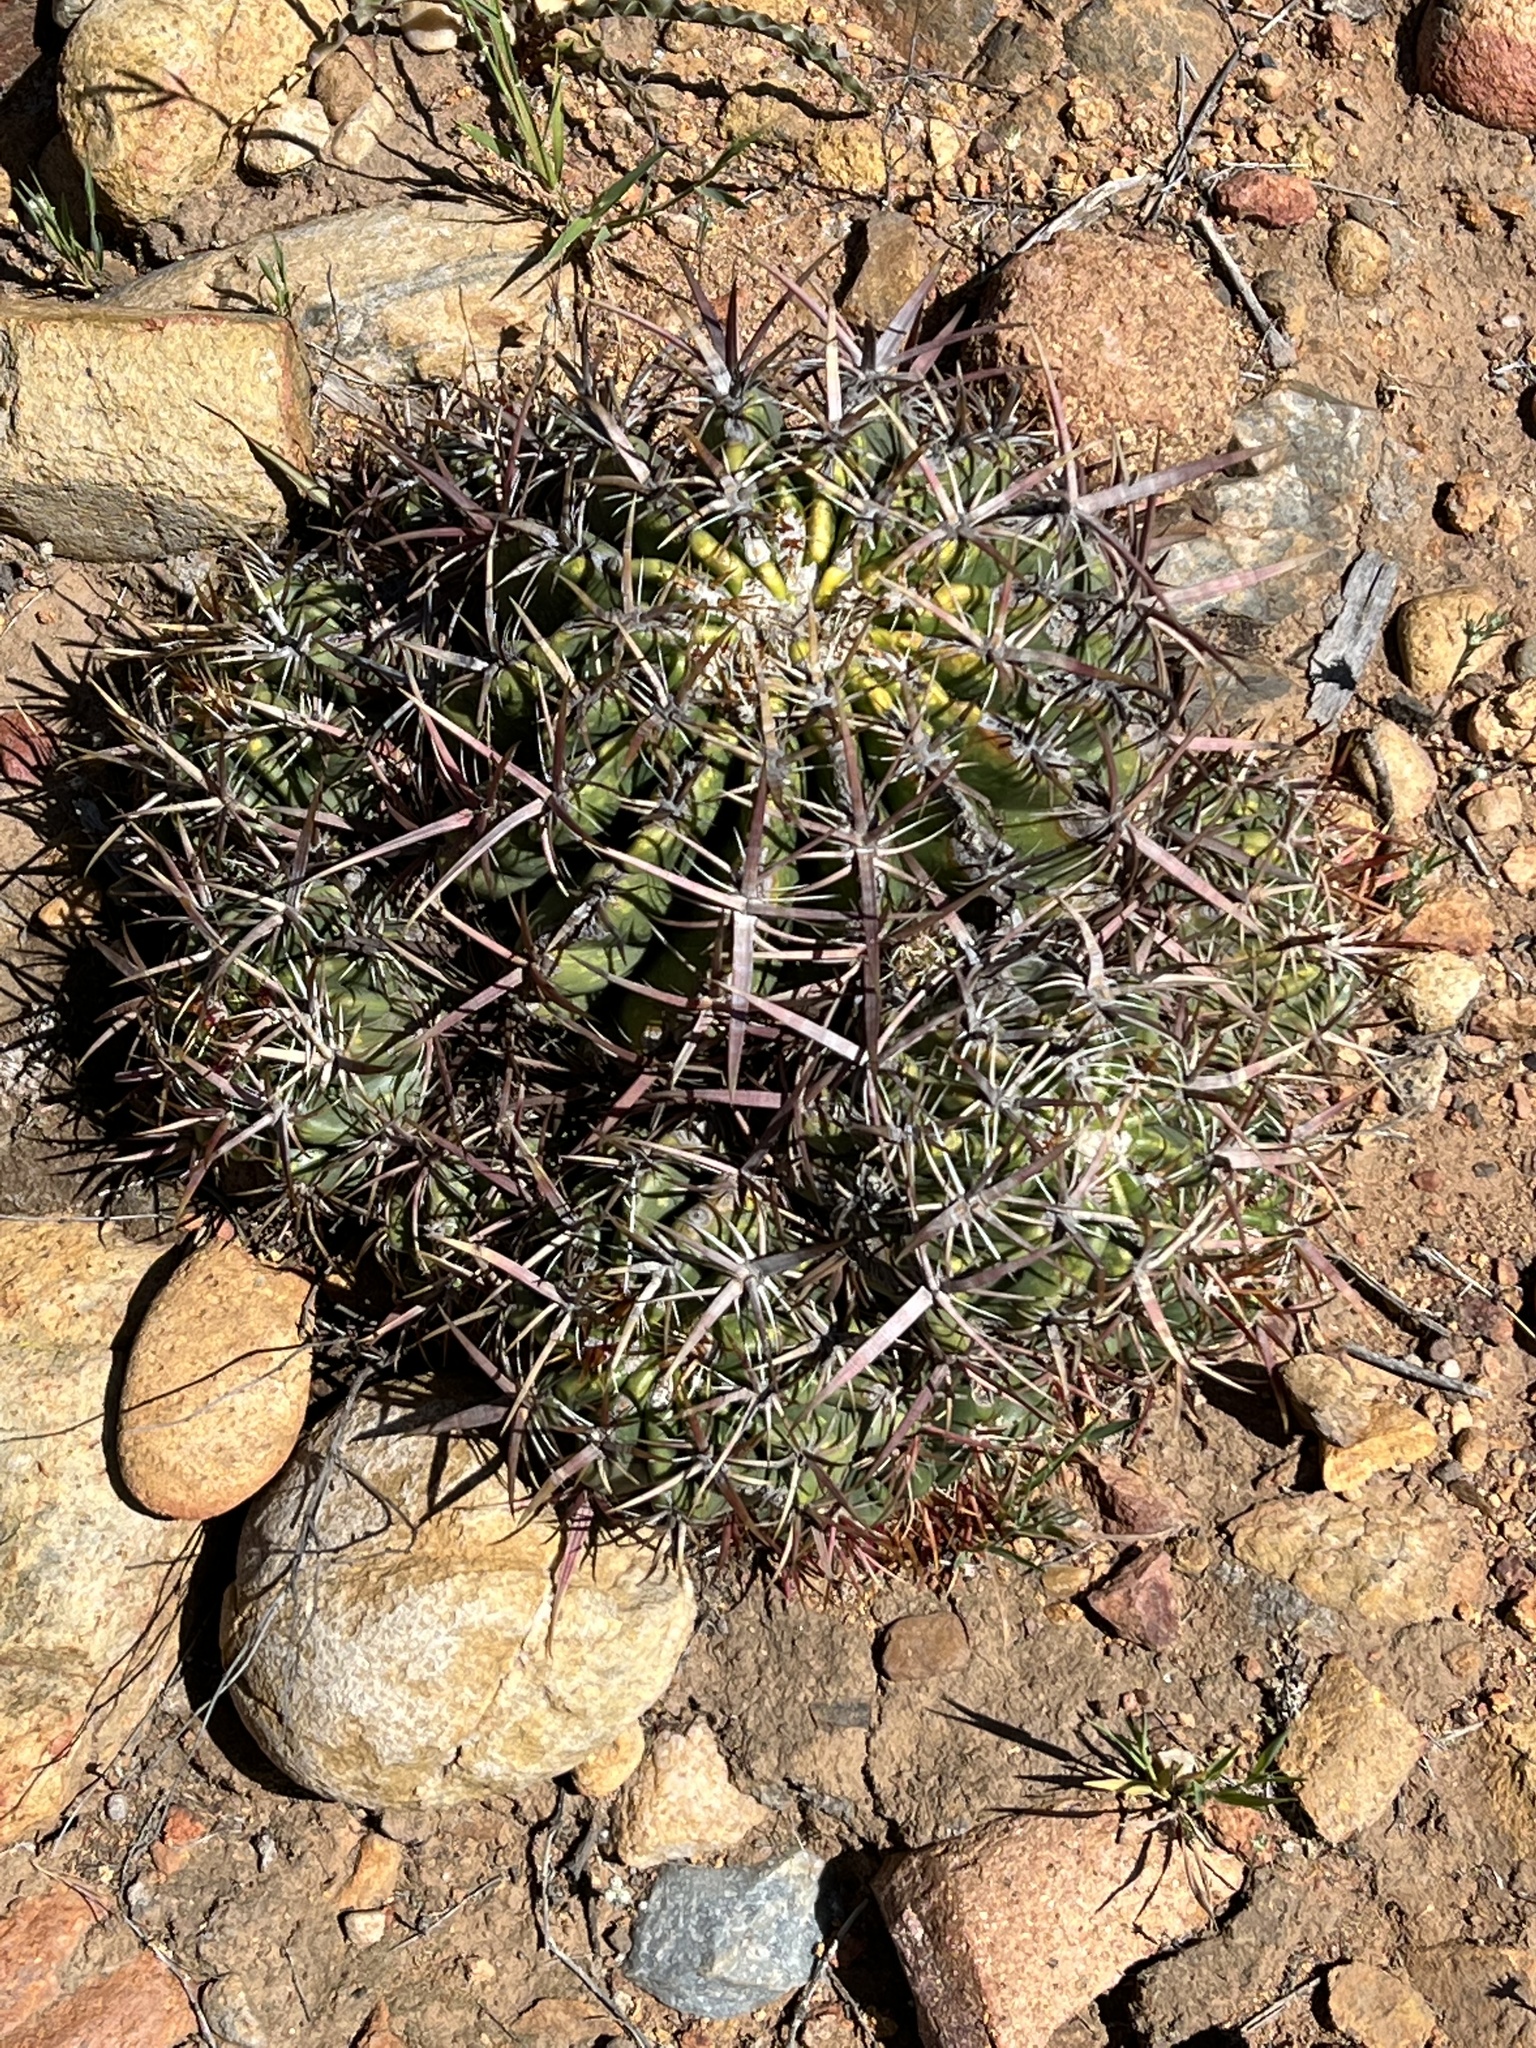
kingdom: Plantae
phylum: Tracheophyta
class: Magnoliopsida
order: Caryophyllales
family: Cactaceae
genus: Ferocactus
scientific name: Ferocactus viridescens
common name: San diego barrel cactus
